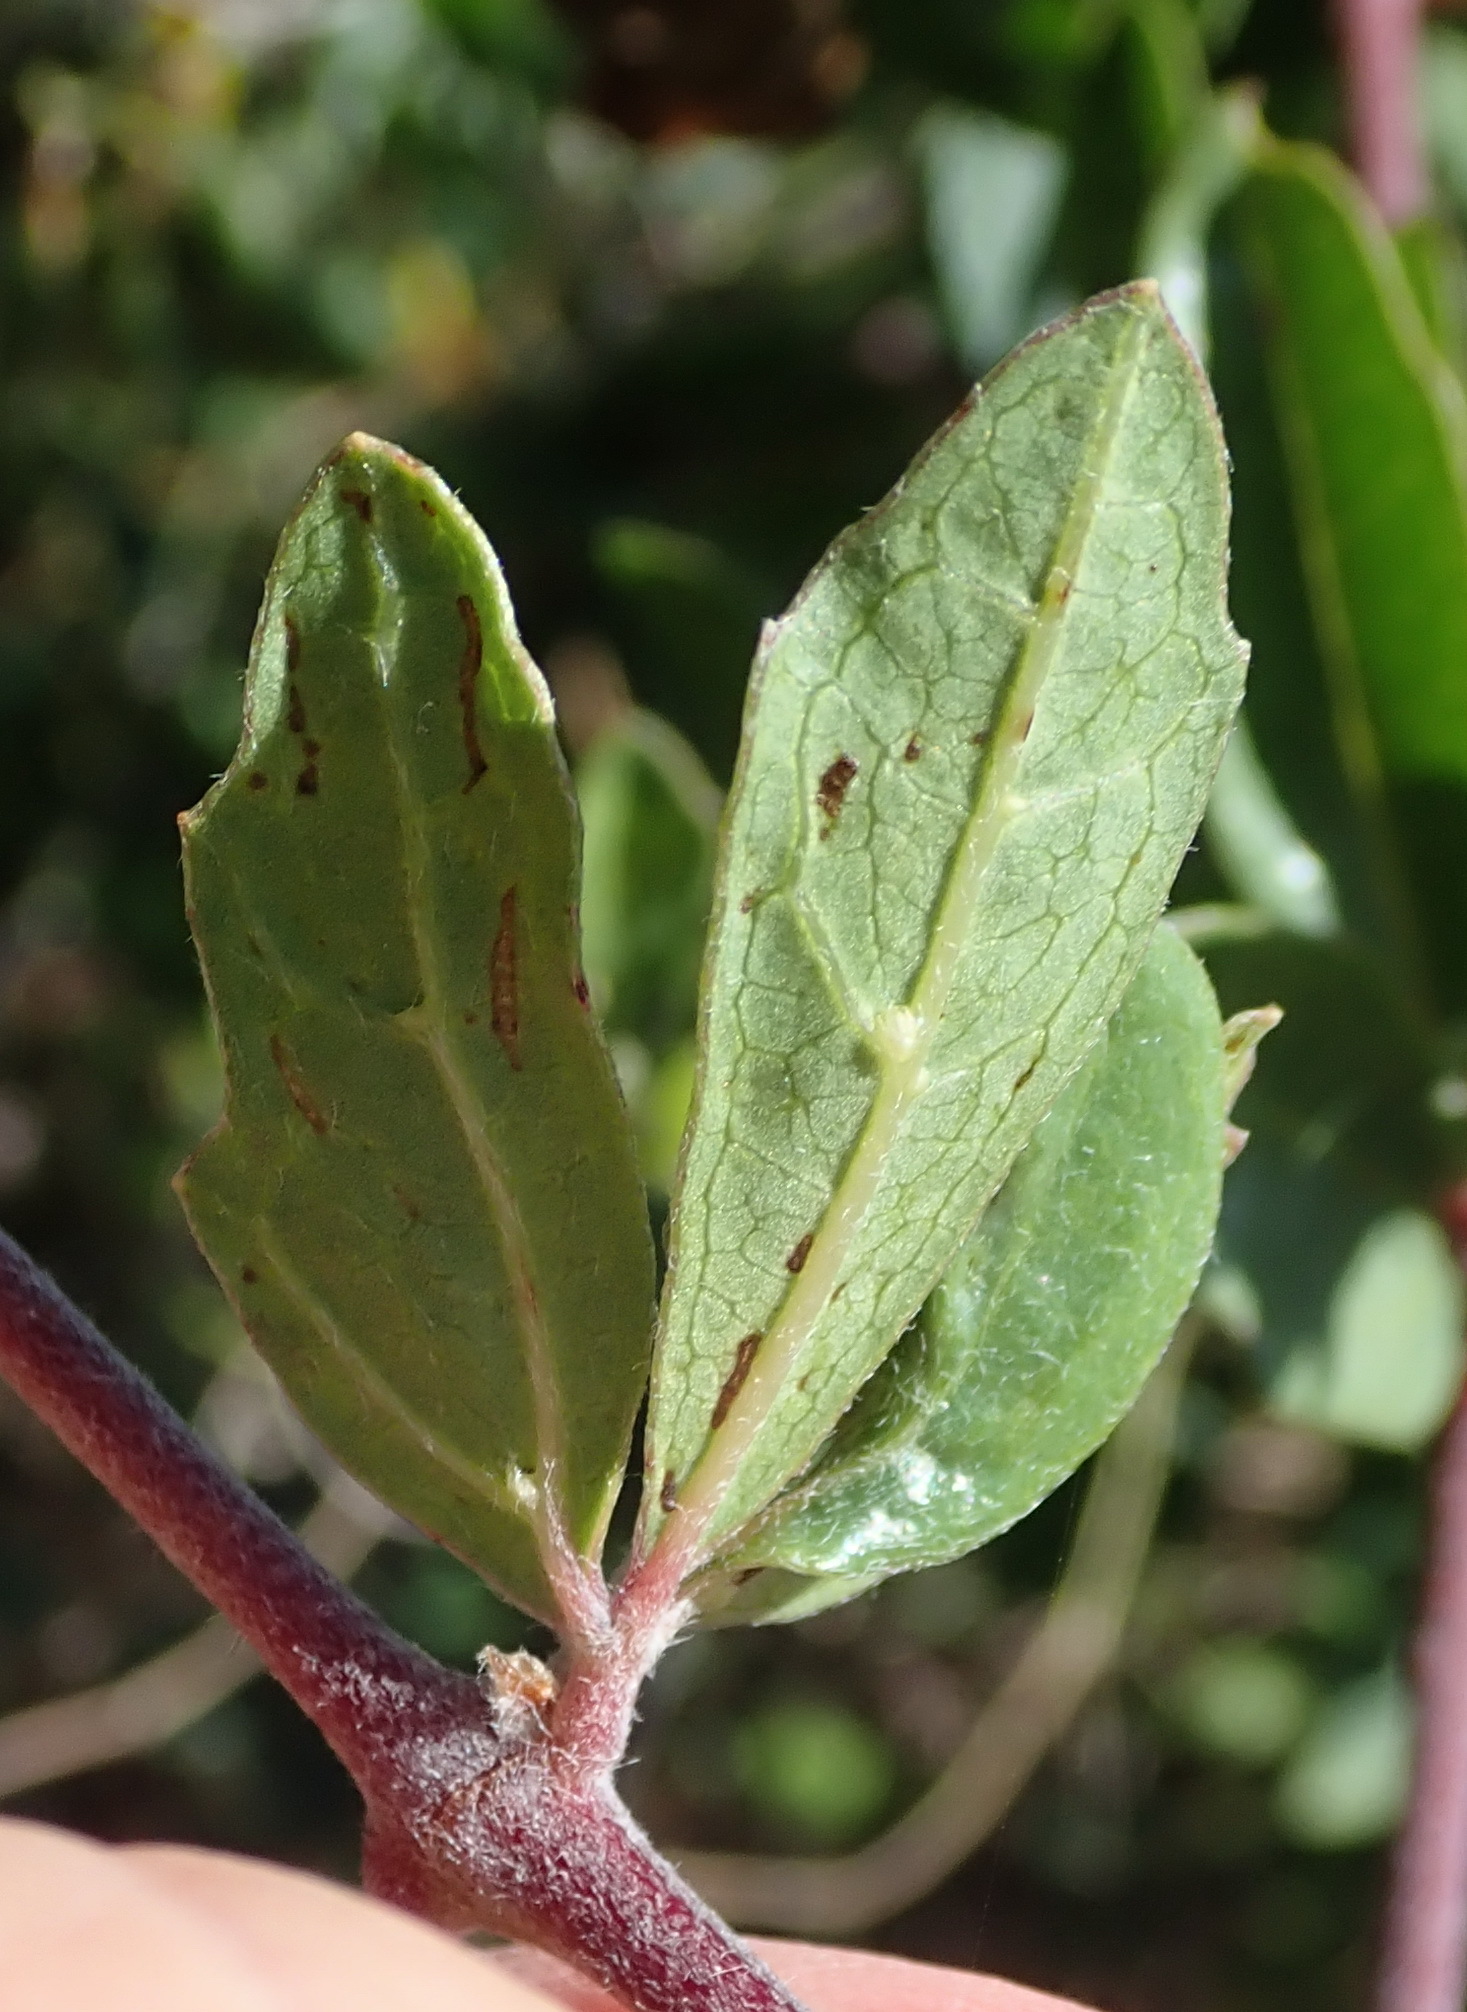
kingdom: Plantae
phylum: Tracheophyta
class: Magnoliopsida
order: Vitales
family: Vitaceae
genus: Rhoicissus
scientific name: Rhoicissus tridentata
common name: Common forest grape
